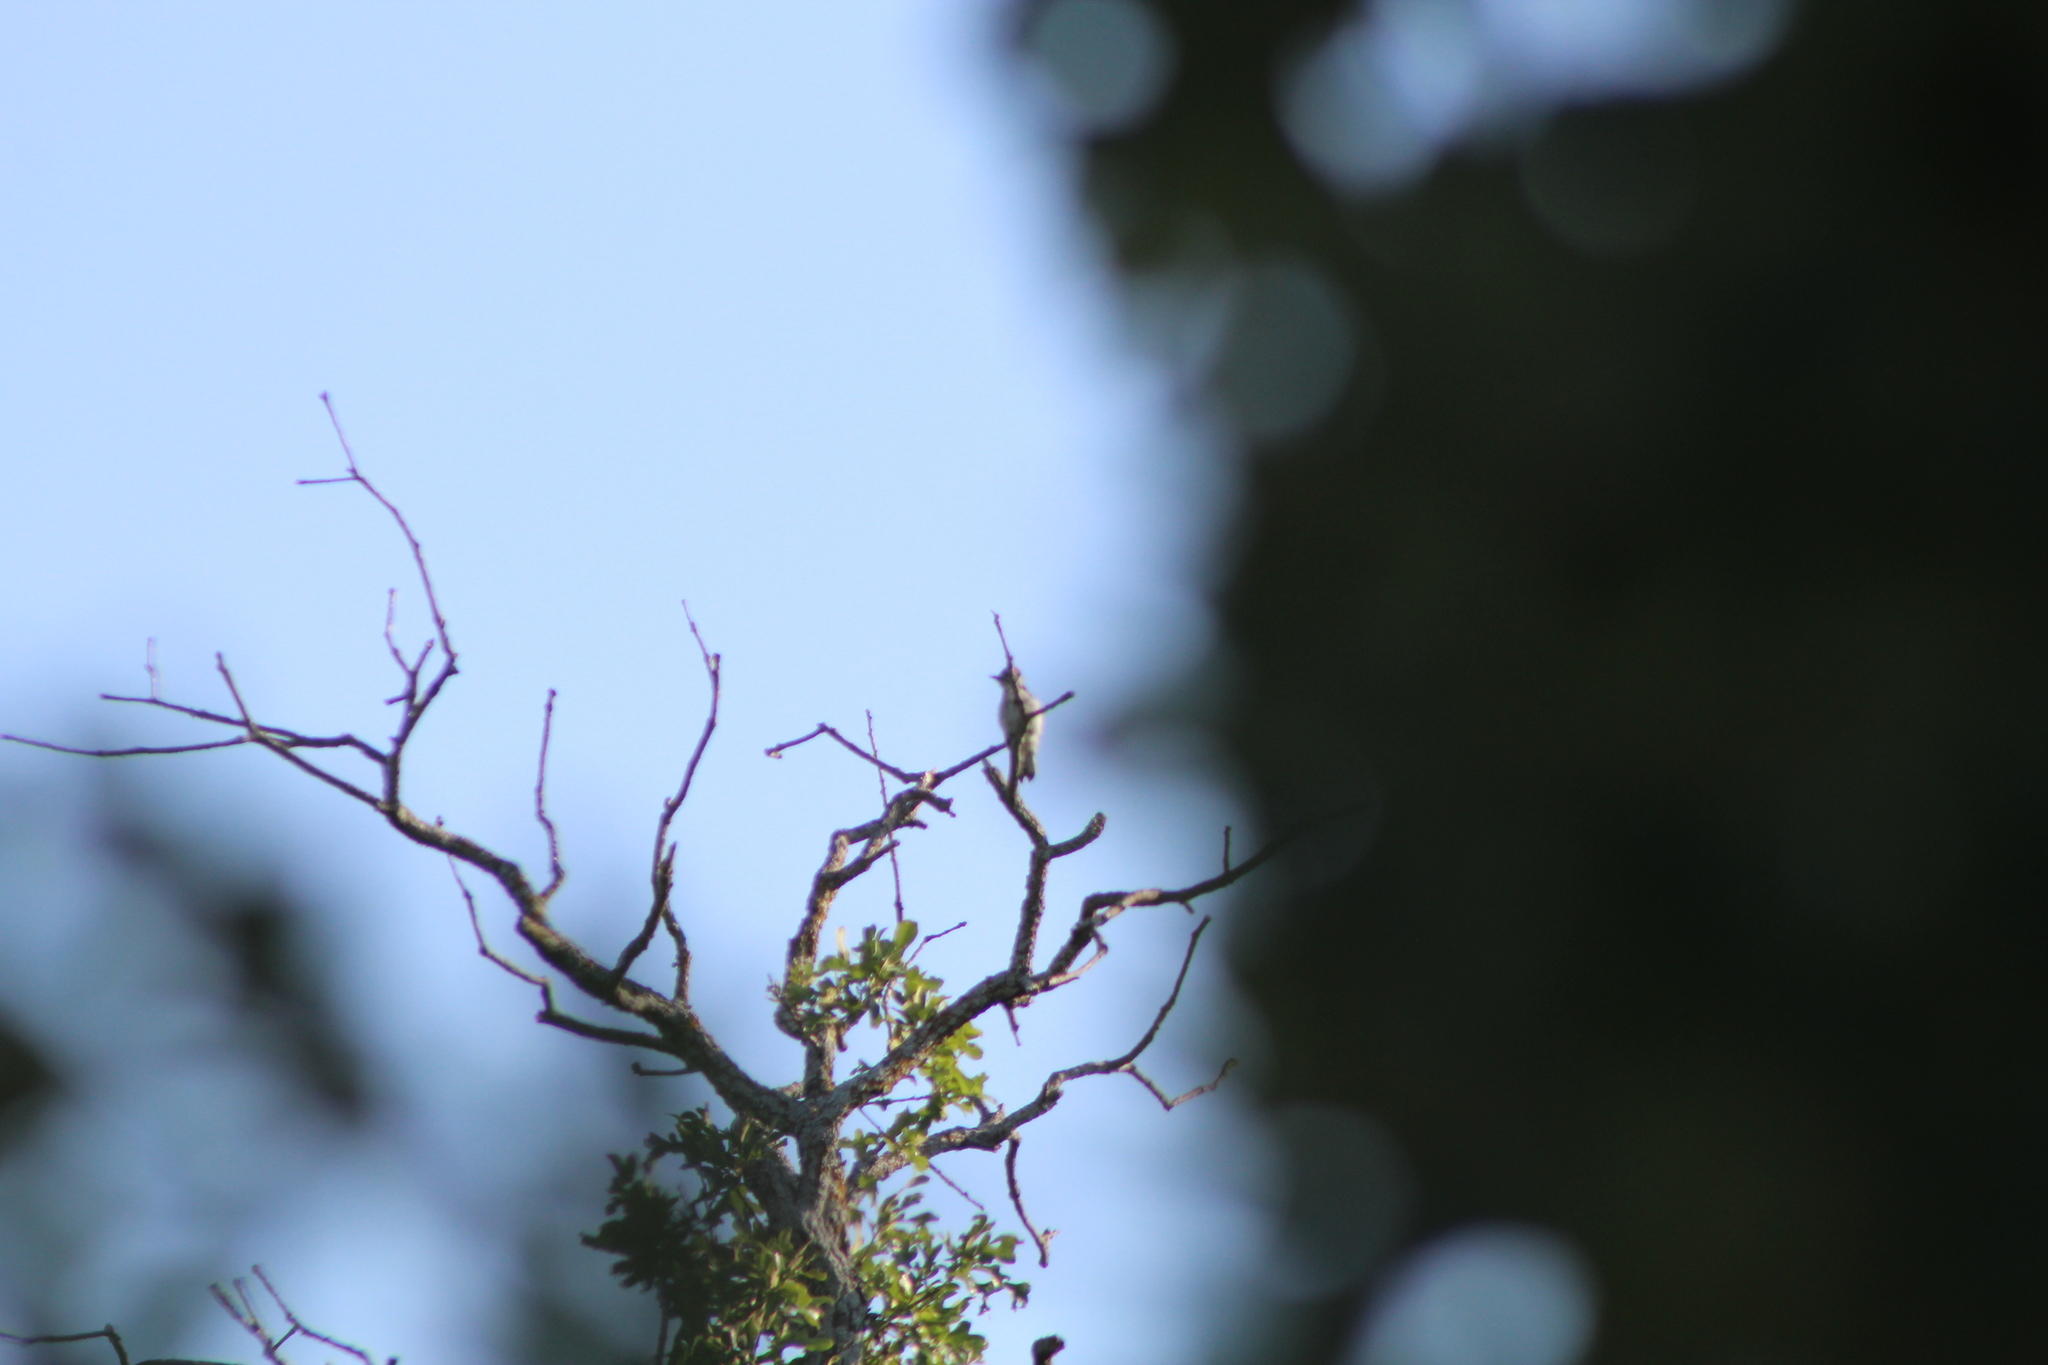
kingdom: Animalia
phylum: Chordata
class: Aves
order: Piciformes
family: Picidae
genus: Dryobates
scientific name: Dryobates pubescens
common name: Downy woodpecker
